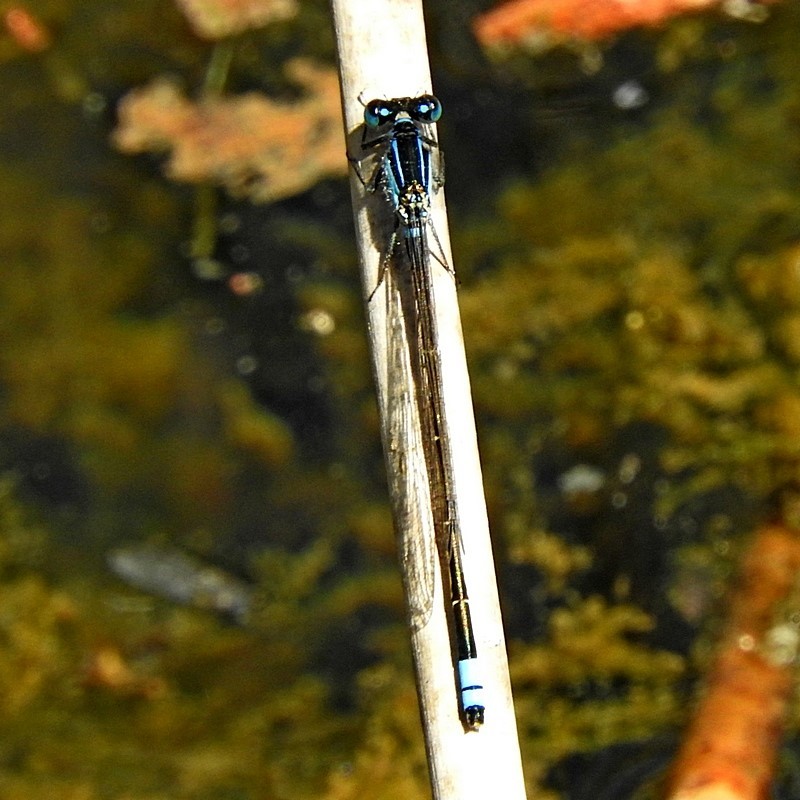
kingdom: Animalia
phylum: Arthropoda
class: Insecta
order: Odonata
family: Coenagrionidae
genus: Ischnura
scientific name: Ischnura heterosticta
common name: Common bluetail
